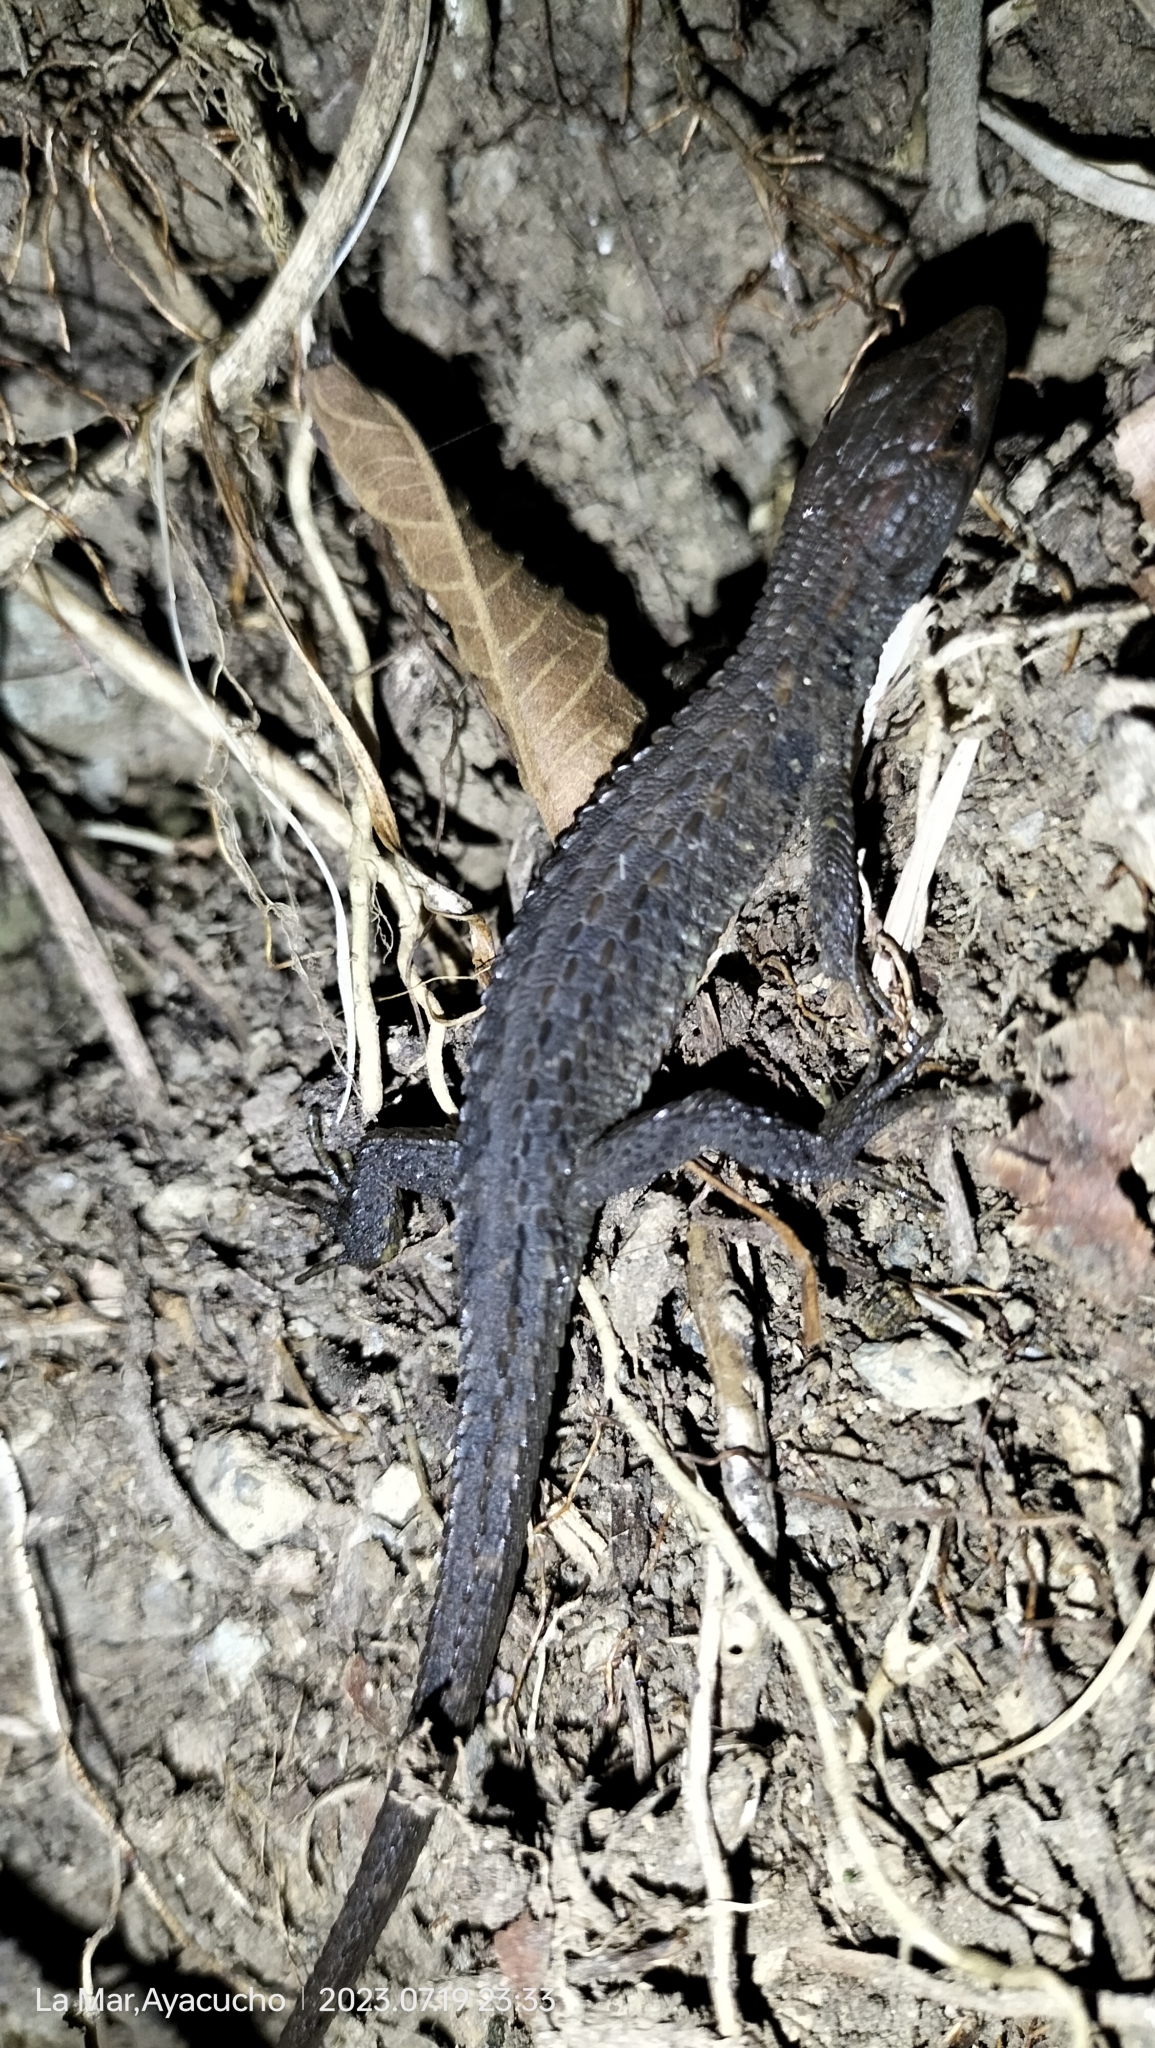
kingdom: Animalia
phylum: Chordata
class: Squamata
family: Gymnophthalmidae
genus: Potamites
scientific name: Potamites montanicola
